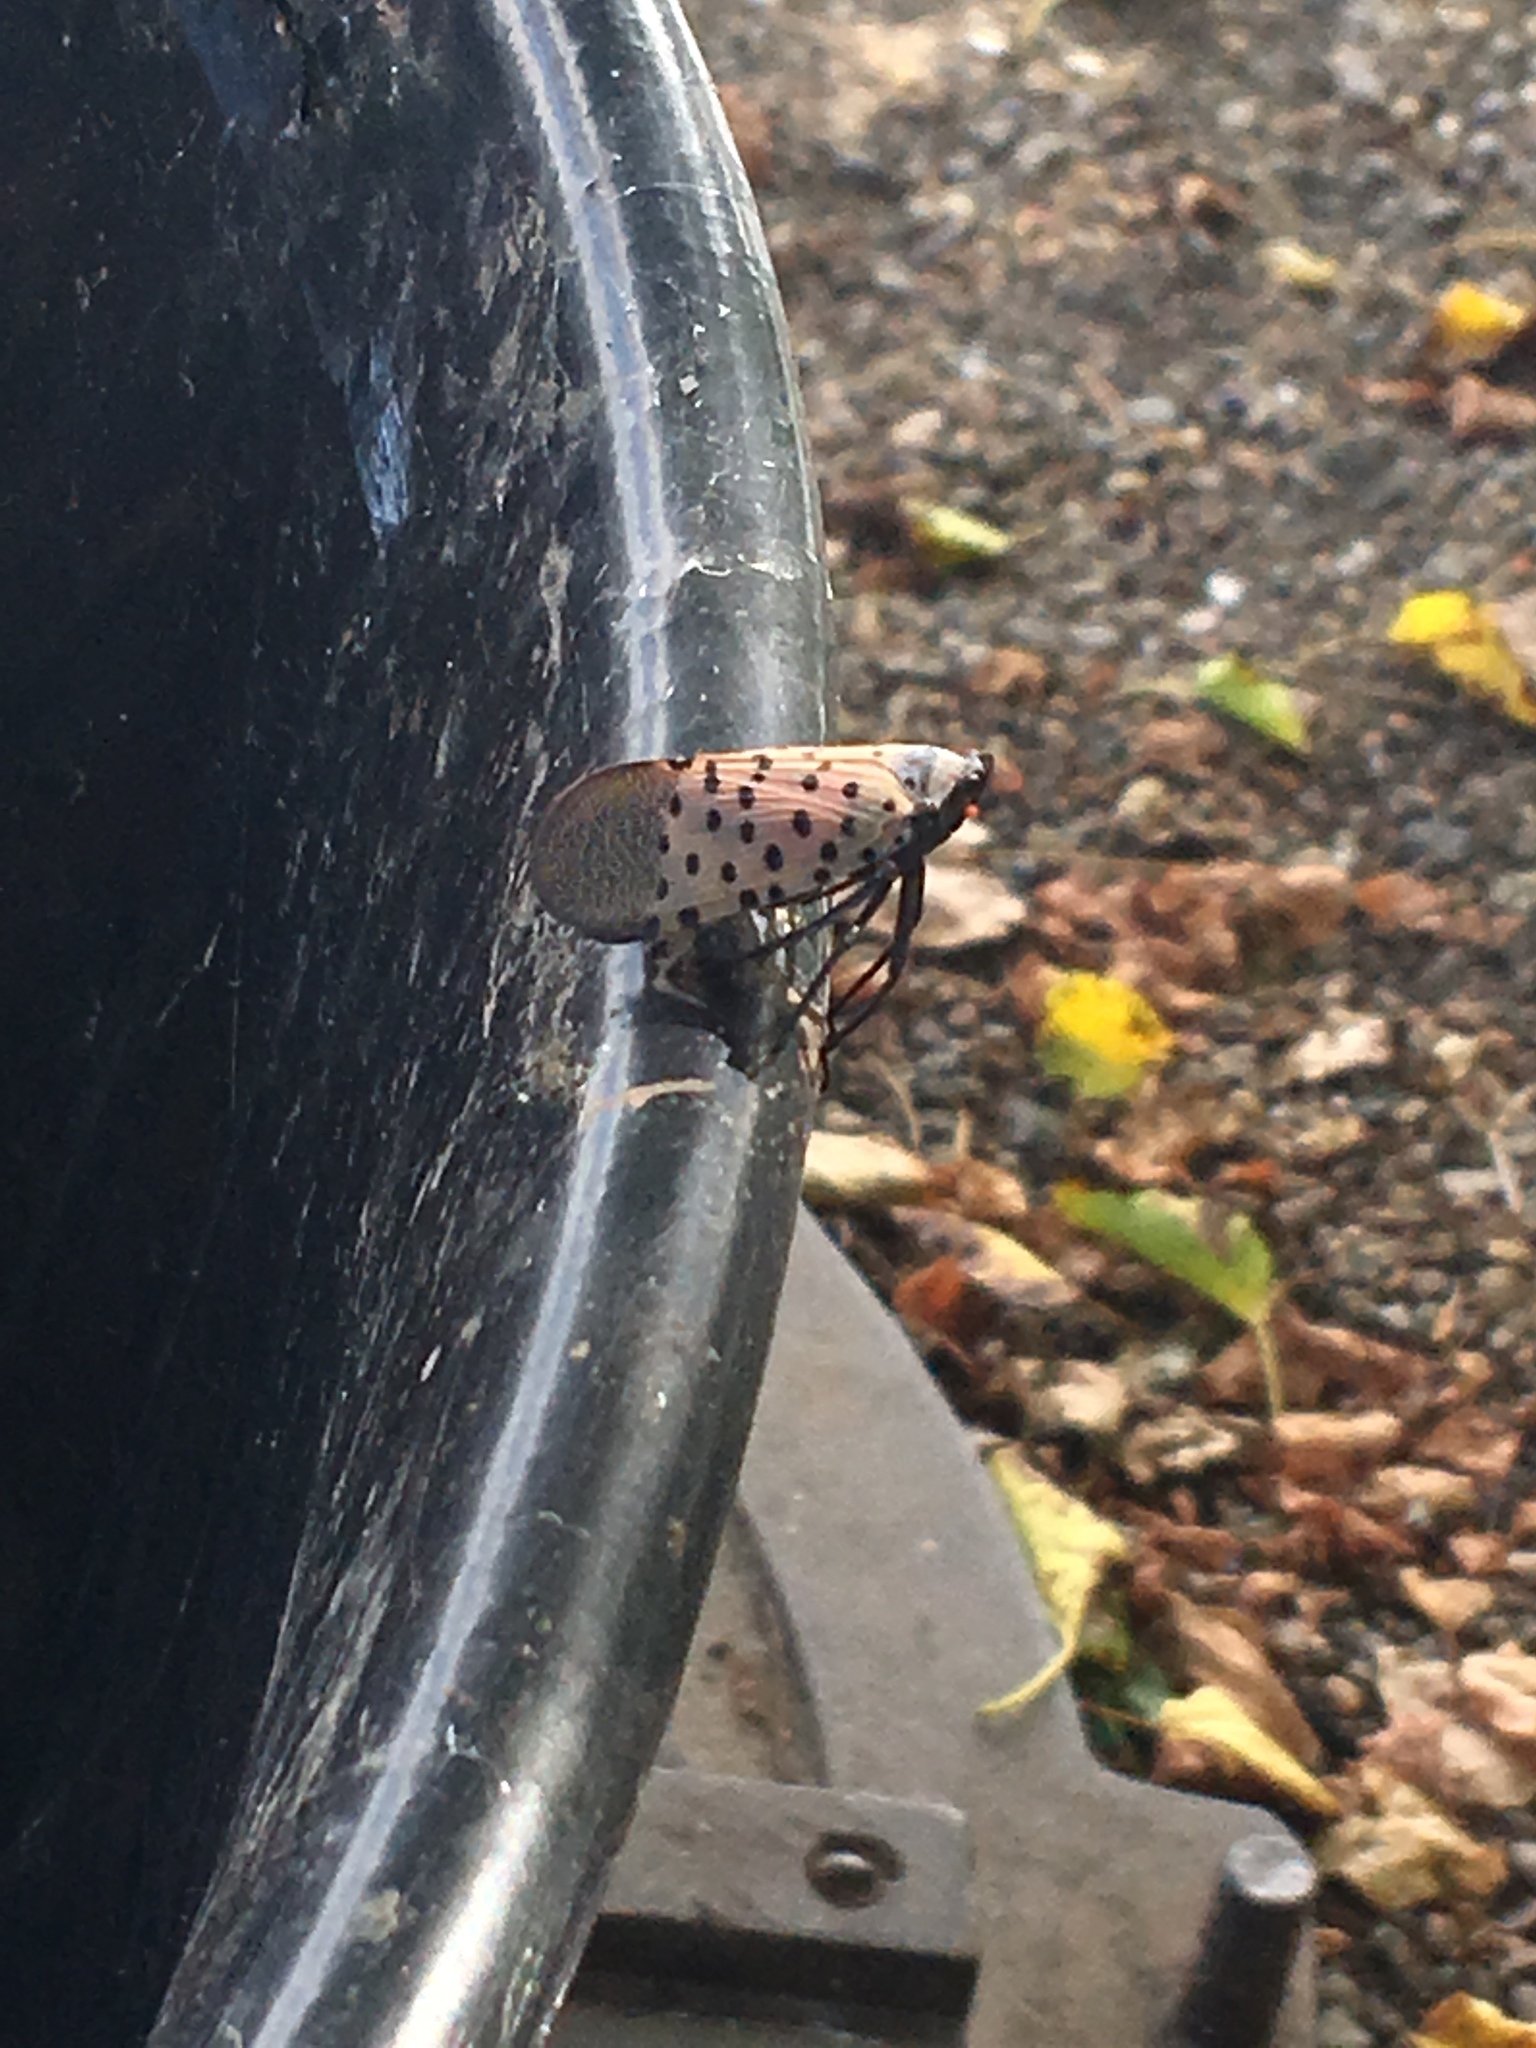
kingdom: Animalia
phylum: Arthropoda
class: Insecta
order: Hemiptera
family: Fulgoridae
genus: Lycorma
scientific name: Lycorma delicatula
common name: Spotted lanternfly
